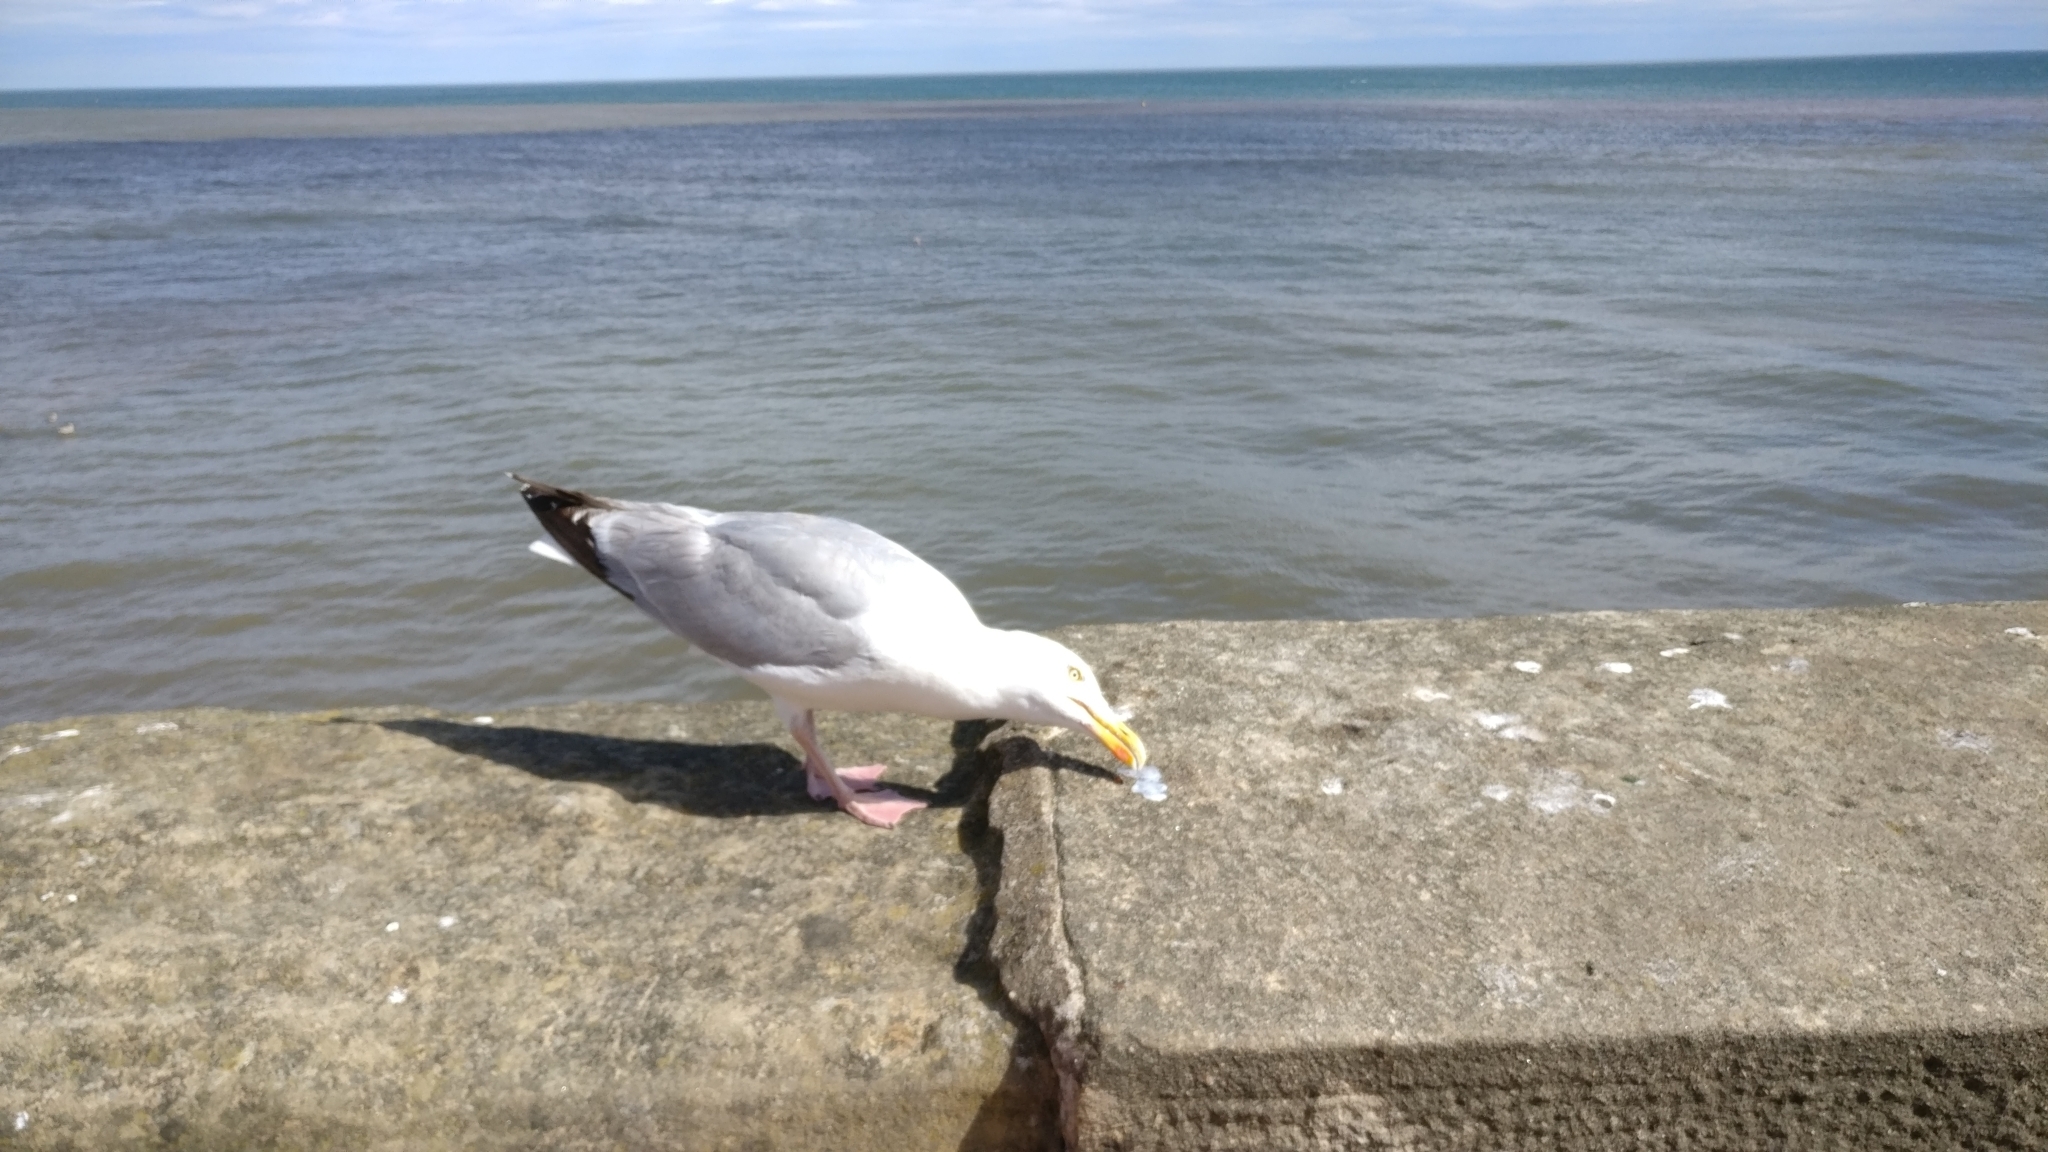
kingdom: Animalia
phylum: Chordata
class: Aves
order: Charadriiformes
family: Laridae
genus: Larus
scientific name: Larus argentatus
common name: Herring gull
